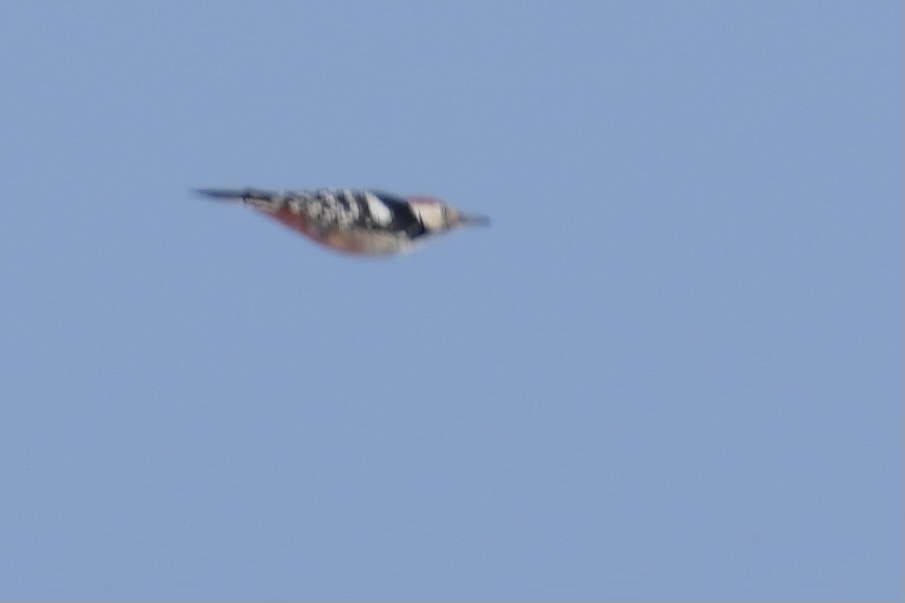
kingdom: Animalia
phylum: Chordata
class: Aves
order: Piciformes
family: Picidae
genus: Dendrocopos
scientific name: Dendrocopos leucotos
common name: White-backed woodpecker
